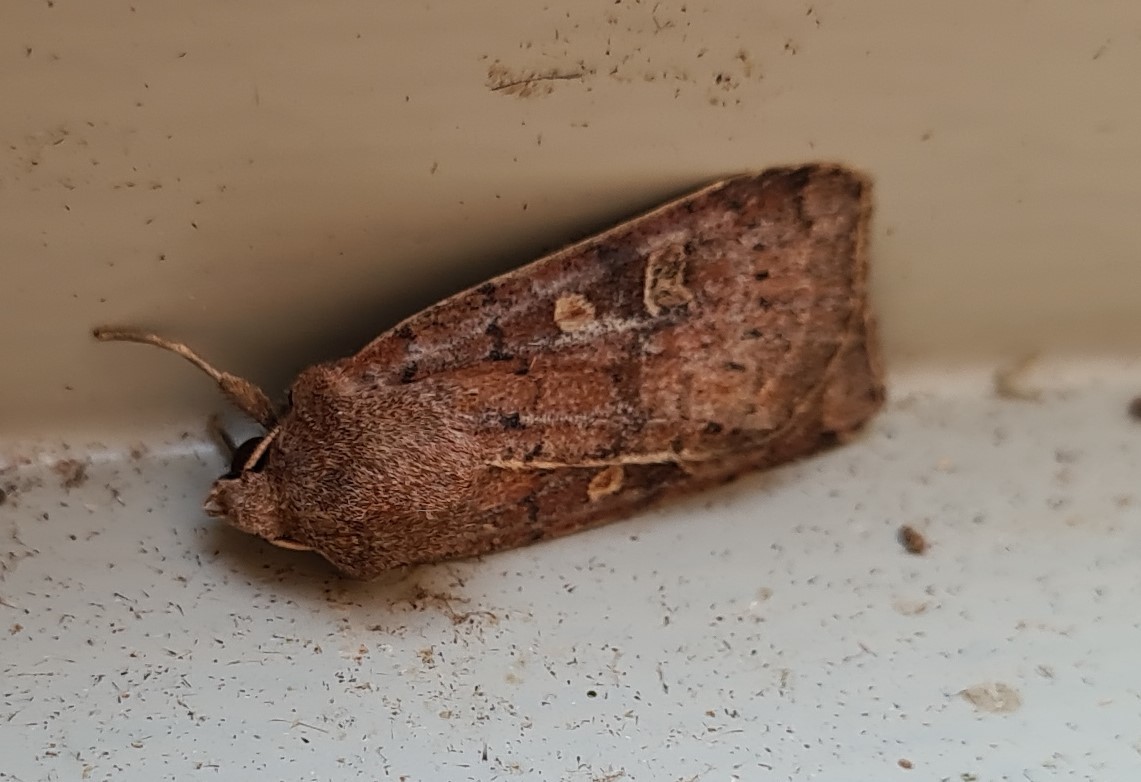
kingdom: Animalia
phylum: Arthropoda
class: Insecta
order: Lepidoptera
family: Noctuidae
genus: Xestia
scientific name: Xestia xanthographa
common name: Square-spot rustic
